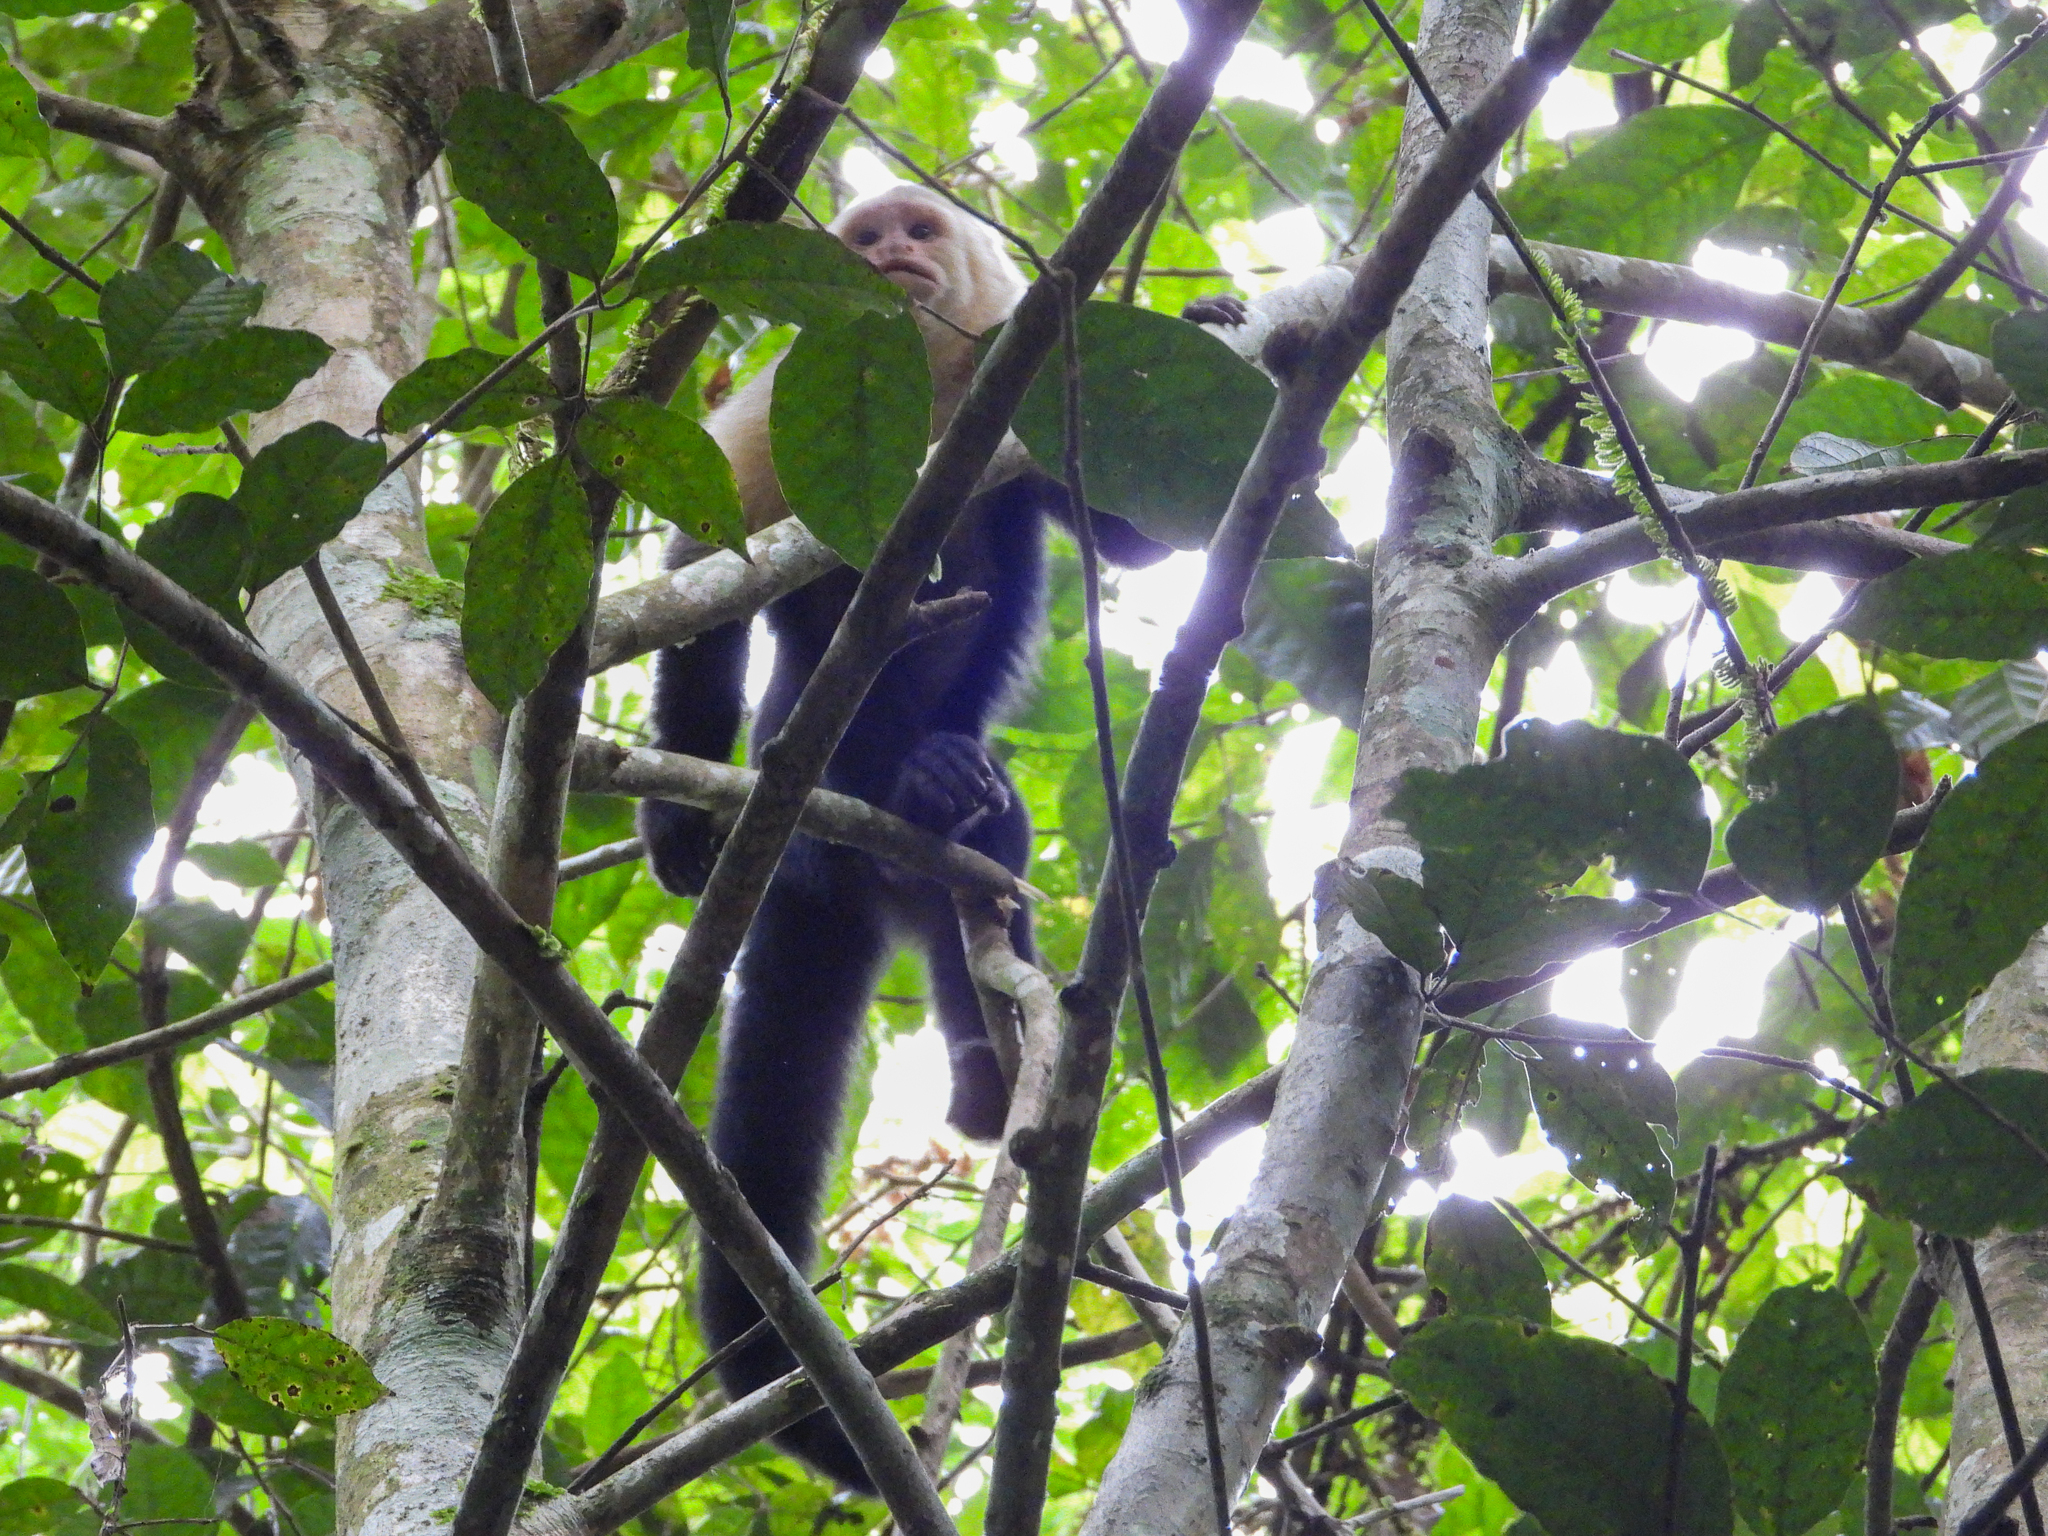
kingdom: Animalia
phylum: Chordata
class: Mammalia
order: Primates
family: Cebidae
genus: Cebus
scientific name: Cebus imitator
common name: Panamanian white-faced capuchin
